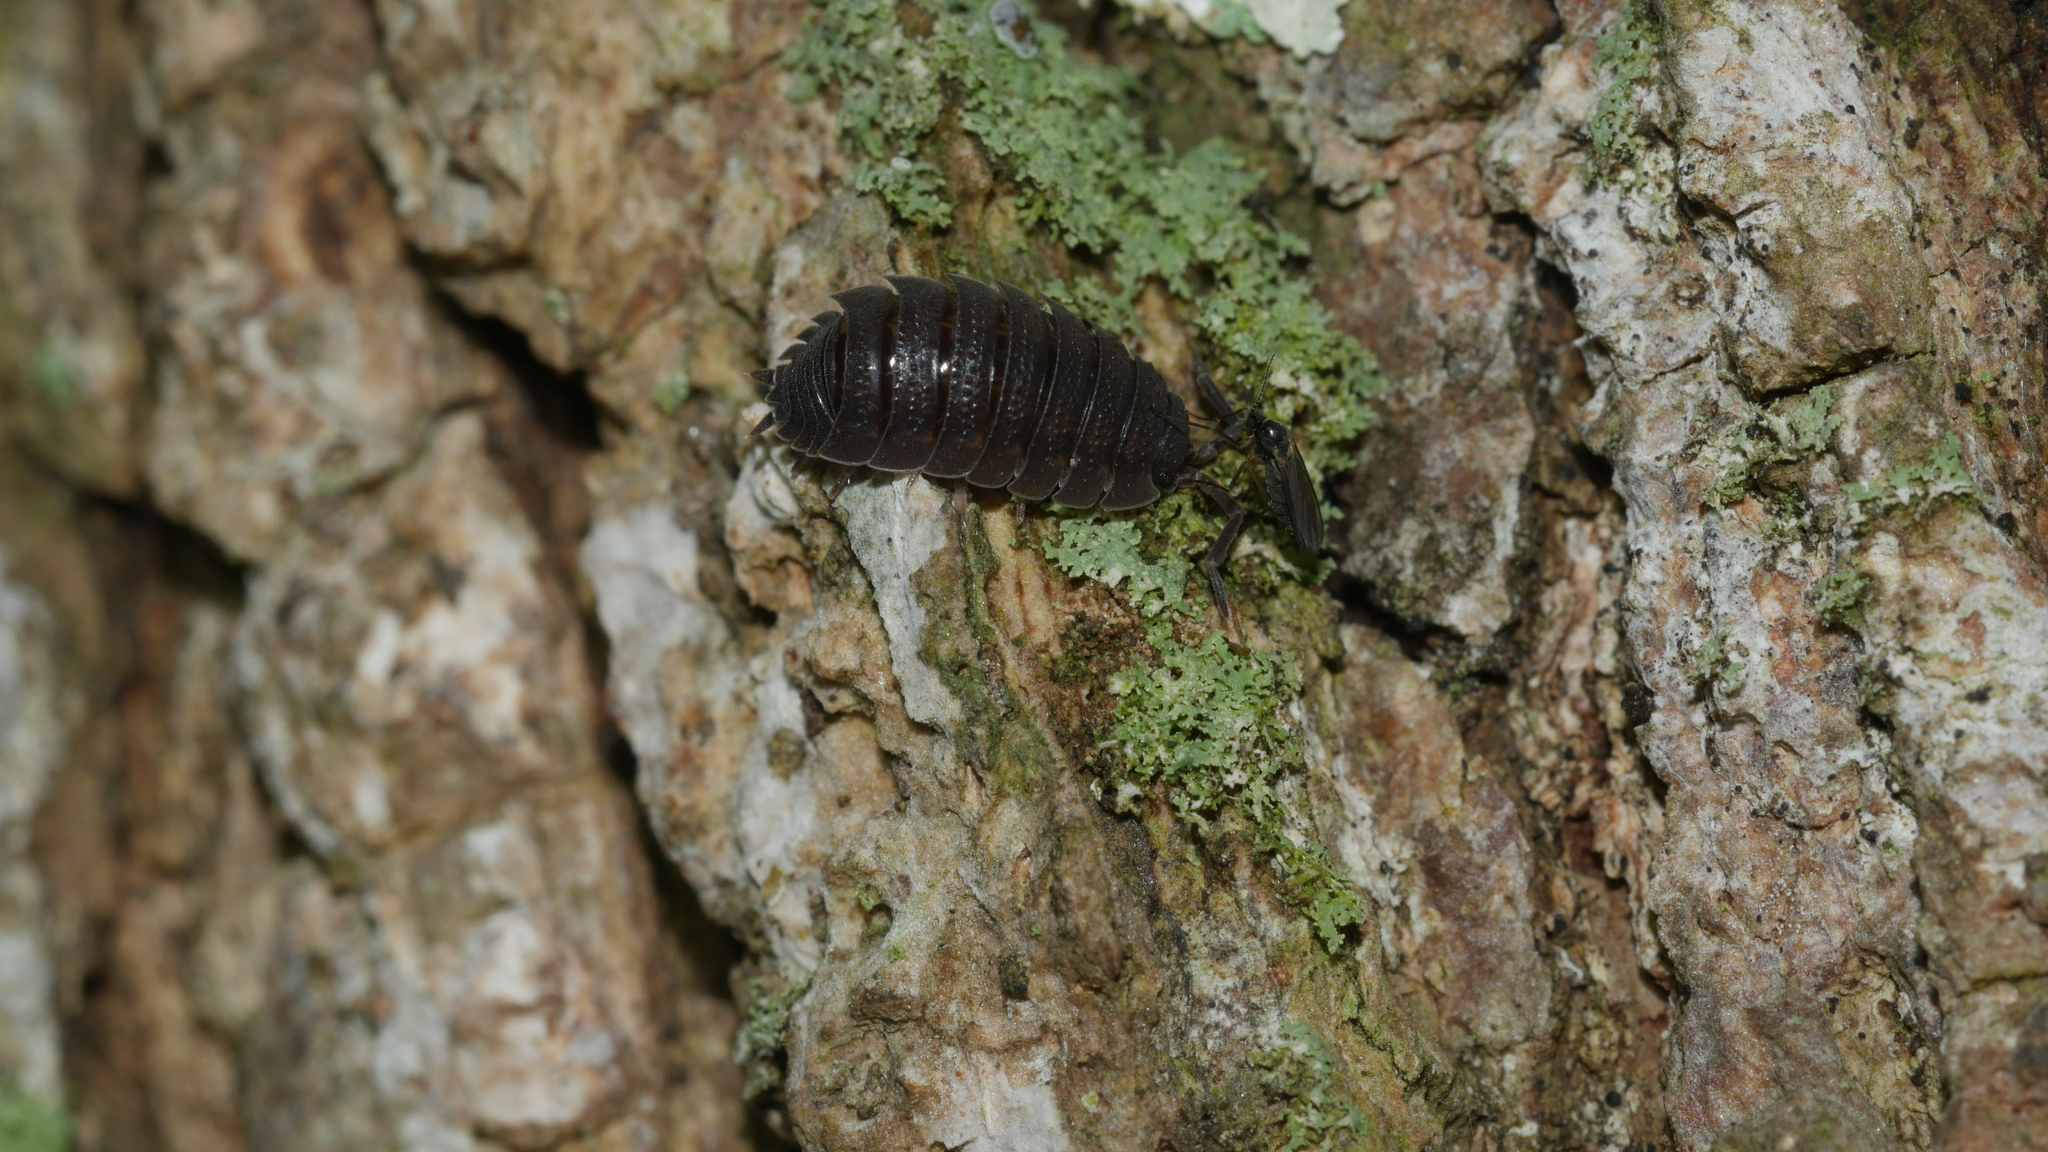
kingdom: Animalia
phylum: Arthropoda
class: Malacostraca
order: Isopoda
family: Porcellionidae
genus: Porcellio
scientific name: Porcellio scaber
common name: Common rough woodlouse
